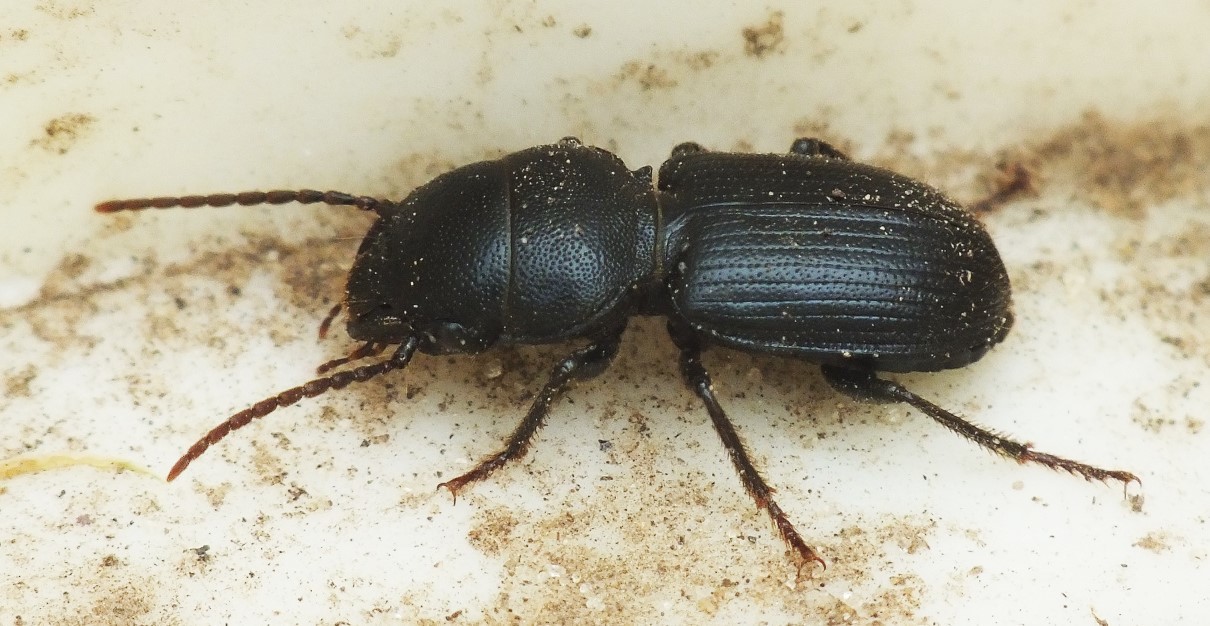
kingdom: Animalia
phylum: Arthropoda
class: Insecta
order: Coleoptera
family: Carabidae
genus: Dixus
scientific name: Dixus eremita
